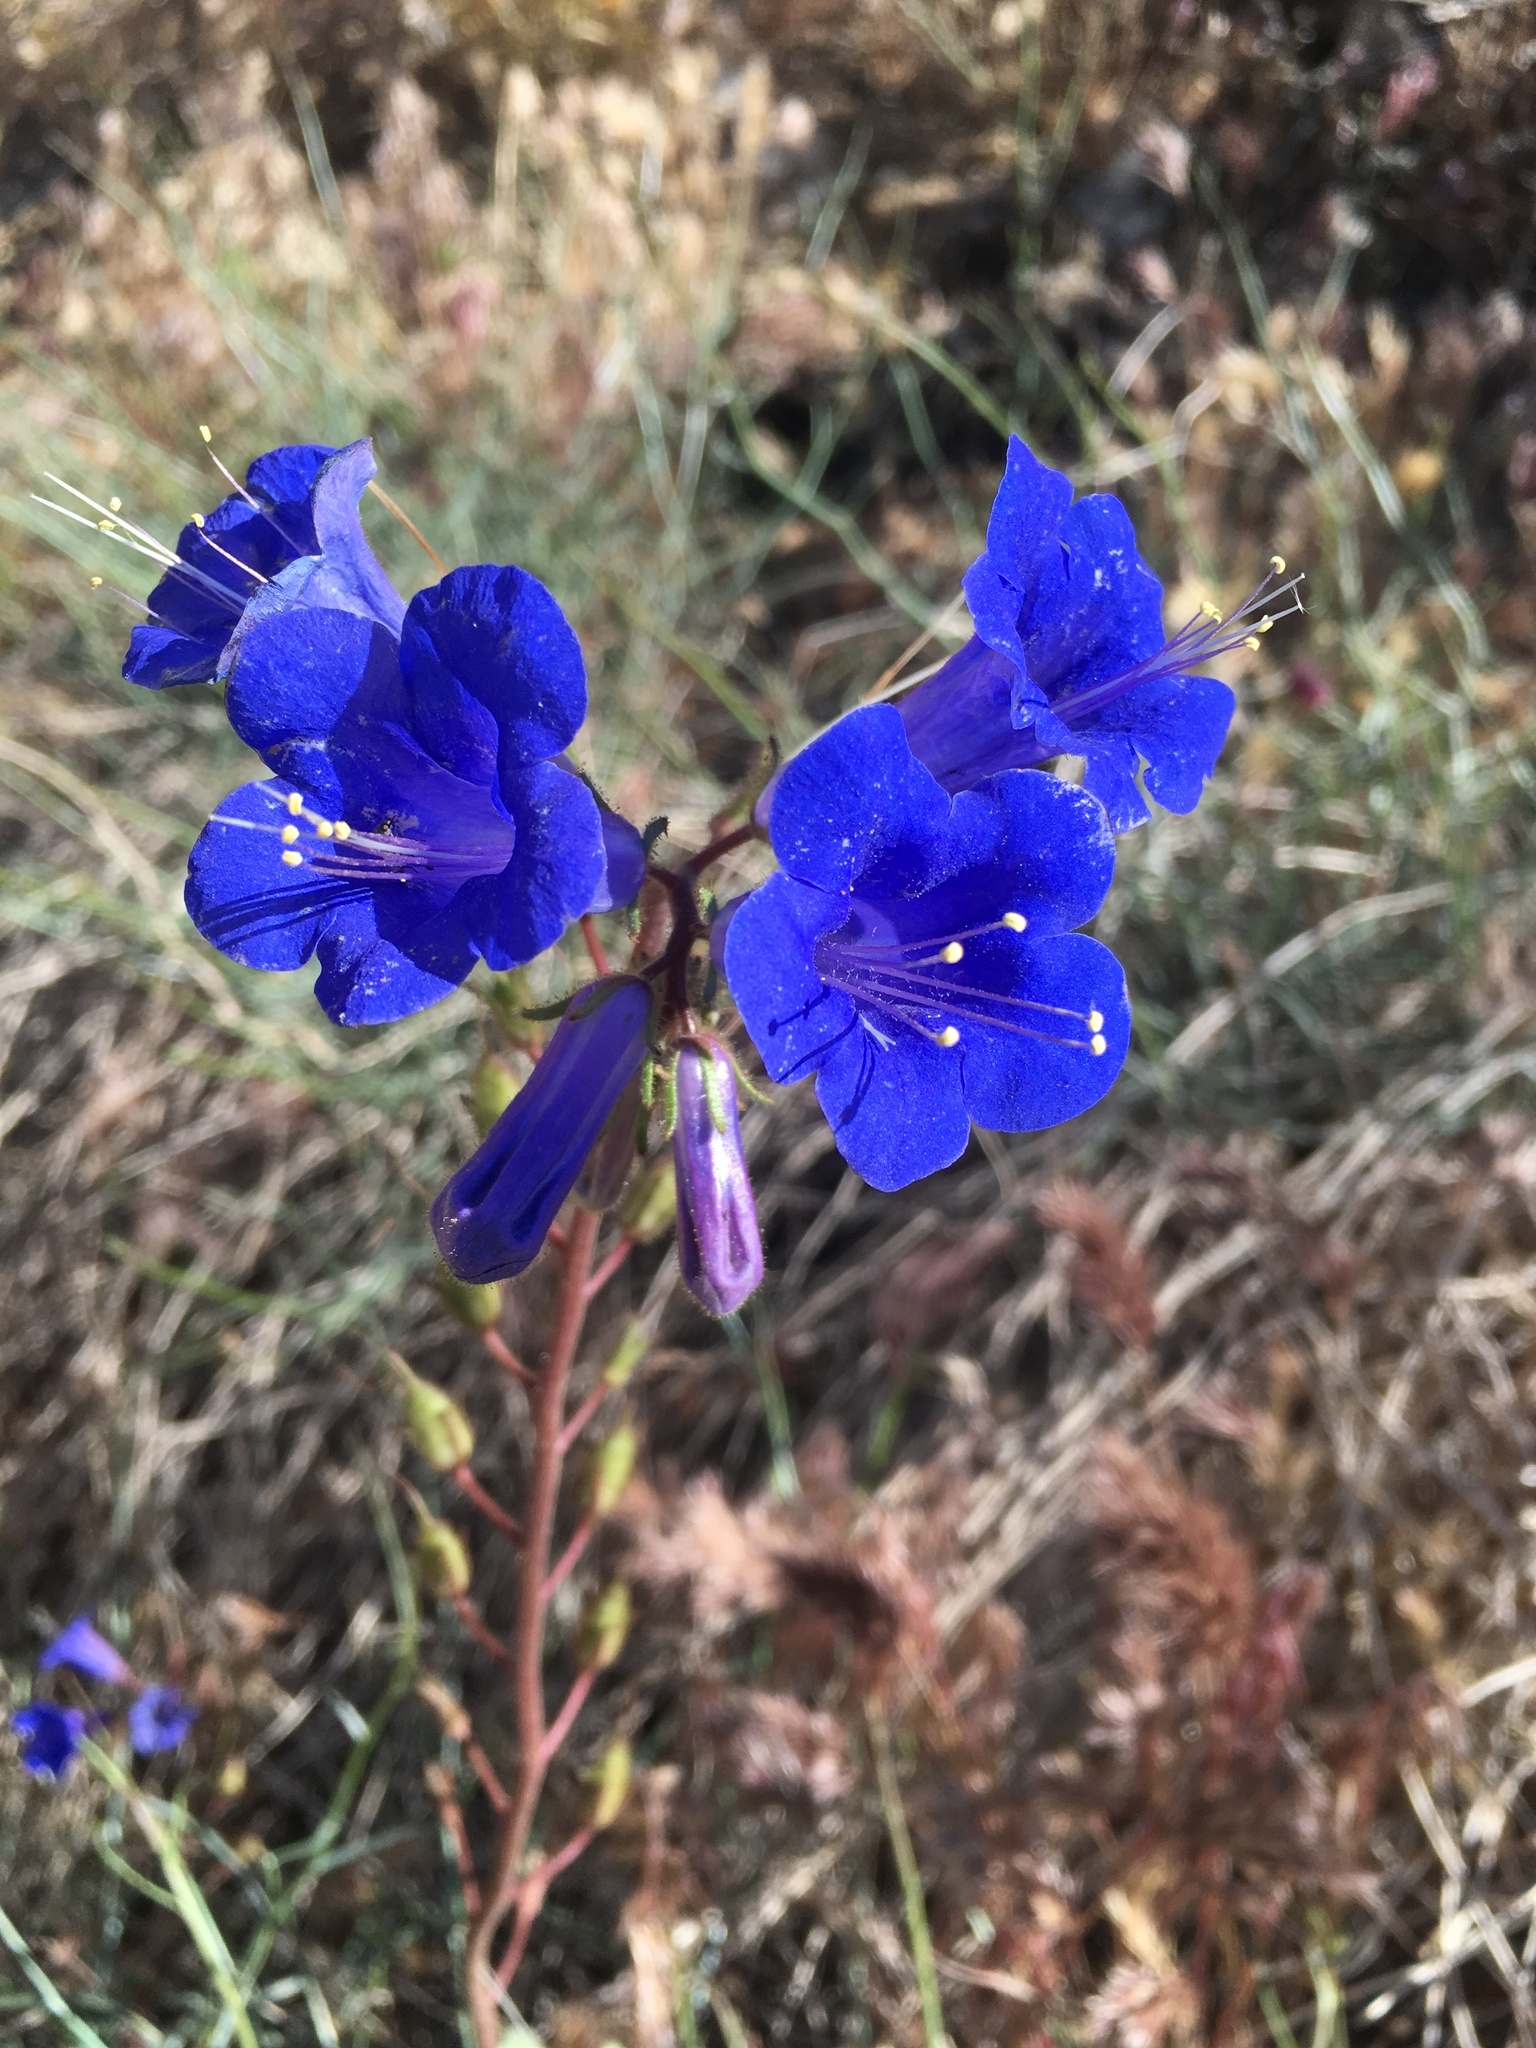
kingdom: Plantae
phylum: Tracheophyta
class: Magnoliopsida
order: Boraginales
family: Hydrophyllaceae
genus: Phacelia
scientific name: Phacelia campanularia
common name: California bluebell
